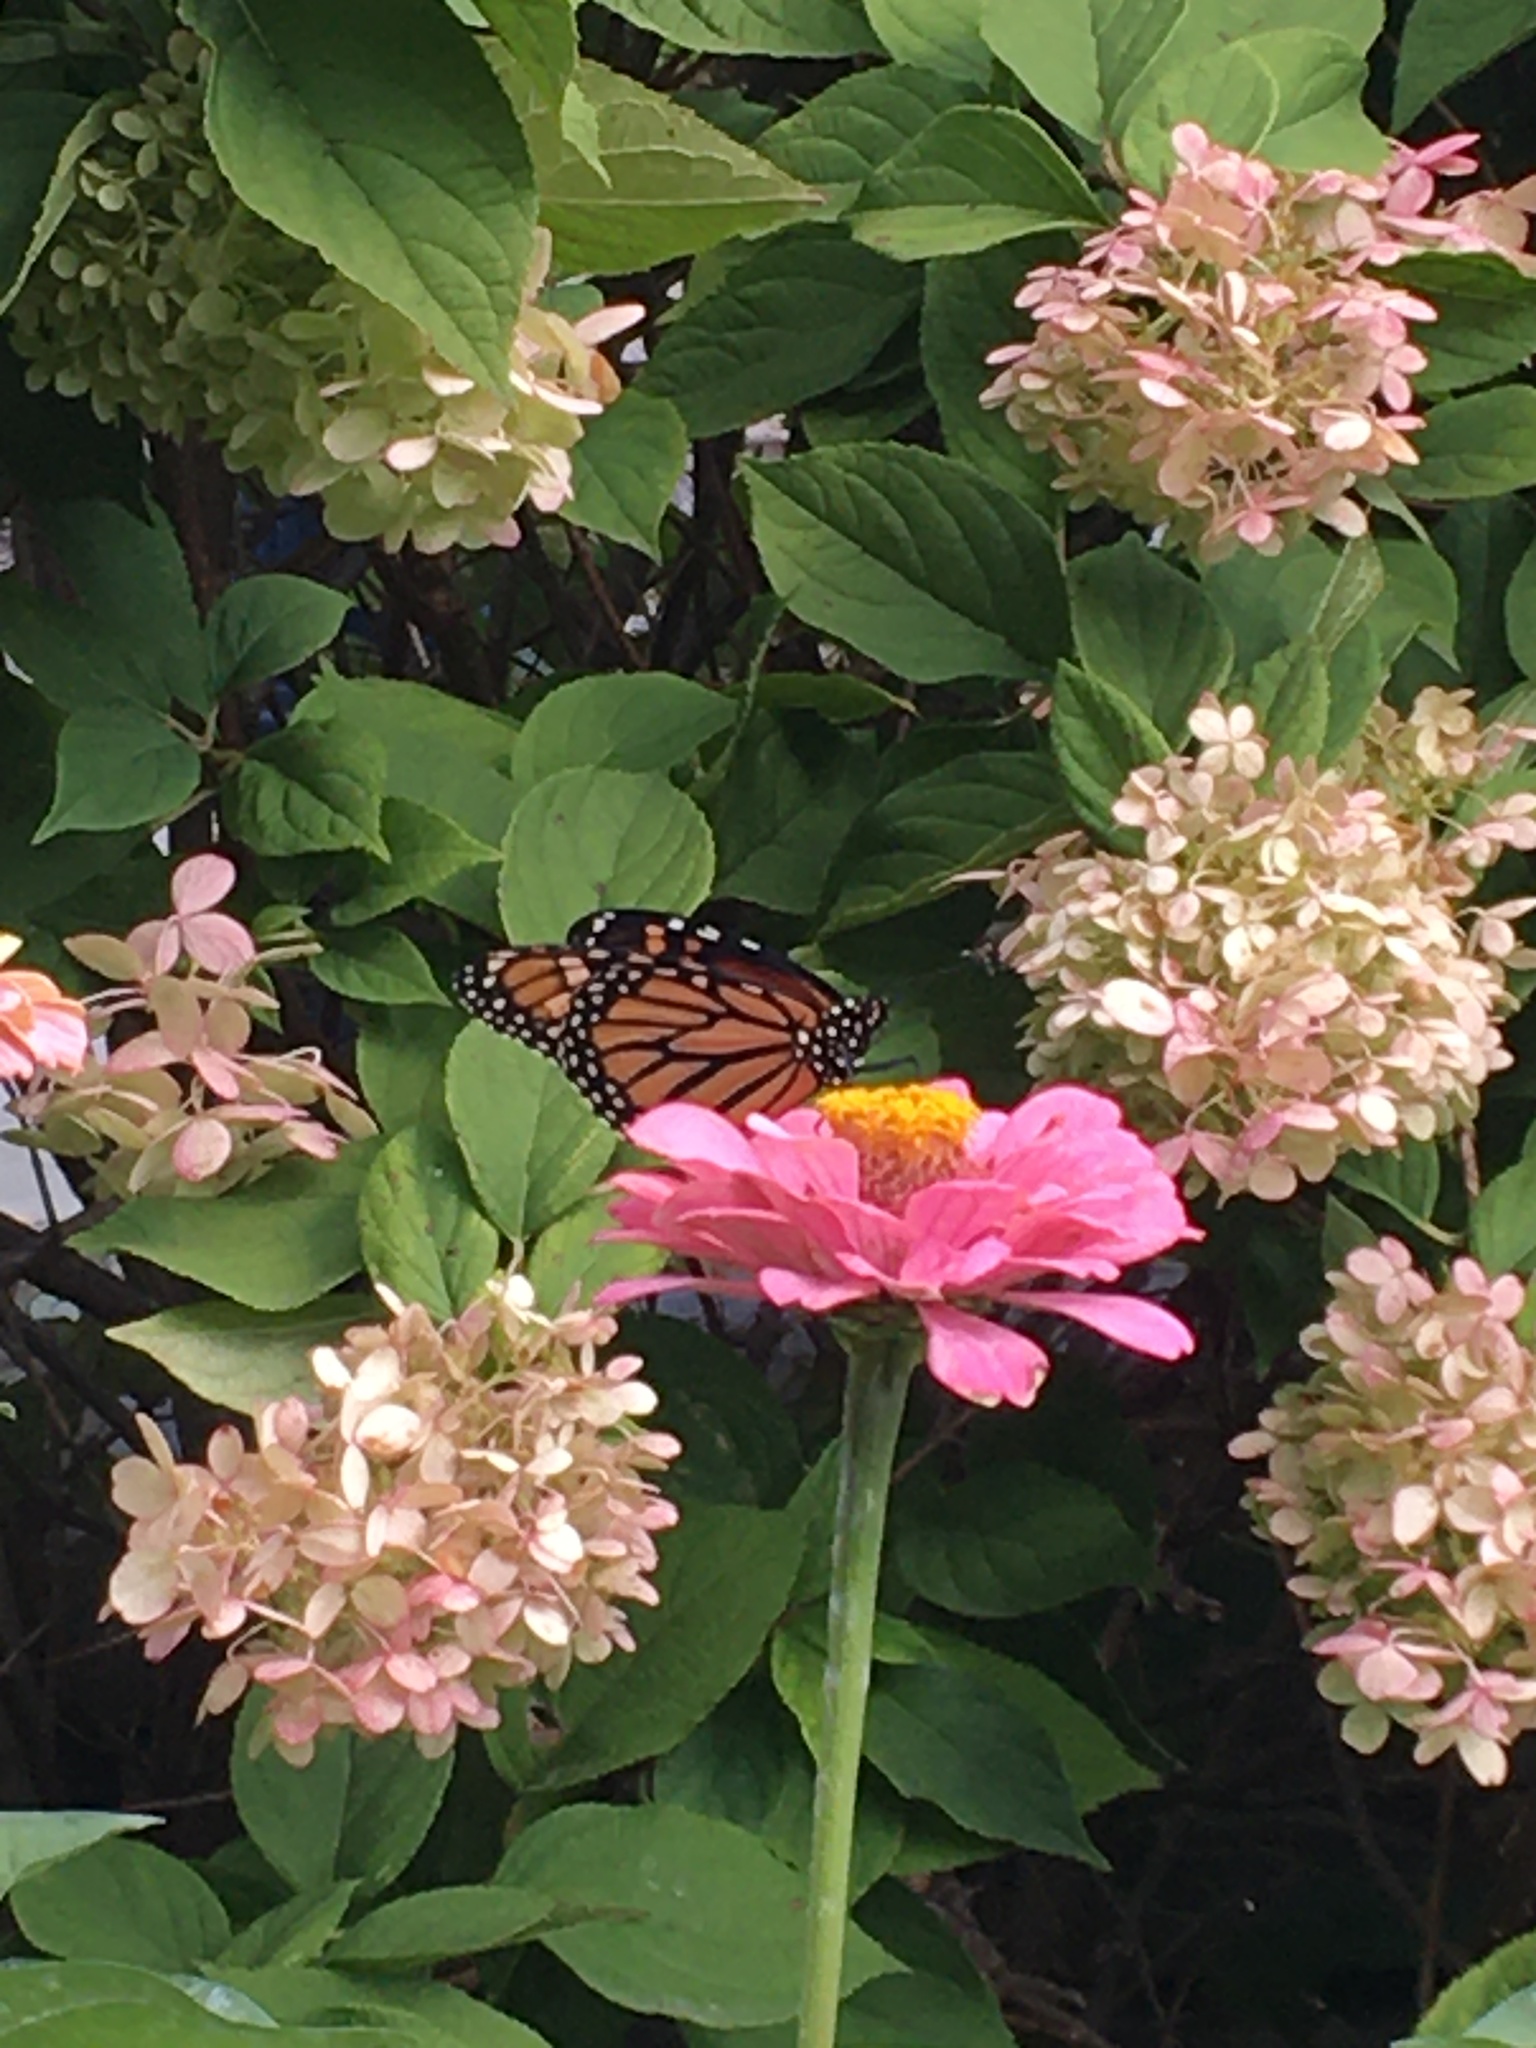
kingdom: Animalia
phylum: Arthropoda
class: Insecta
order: Lepidoptera
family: Nymphalidae
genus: Danaus
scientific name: Danaus plexippus
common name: Monarch
